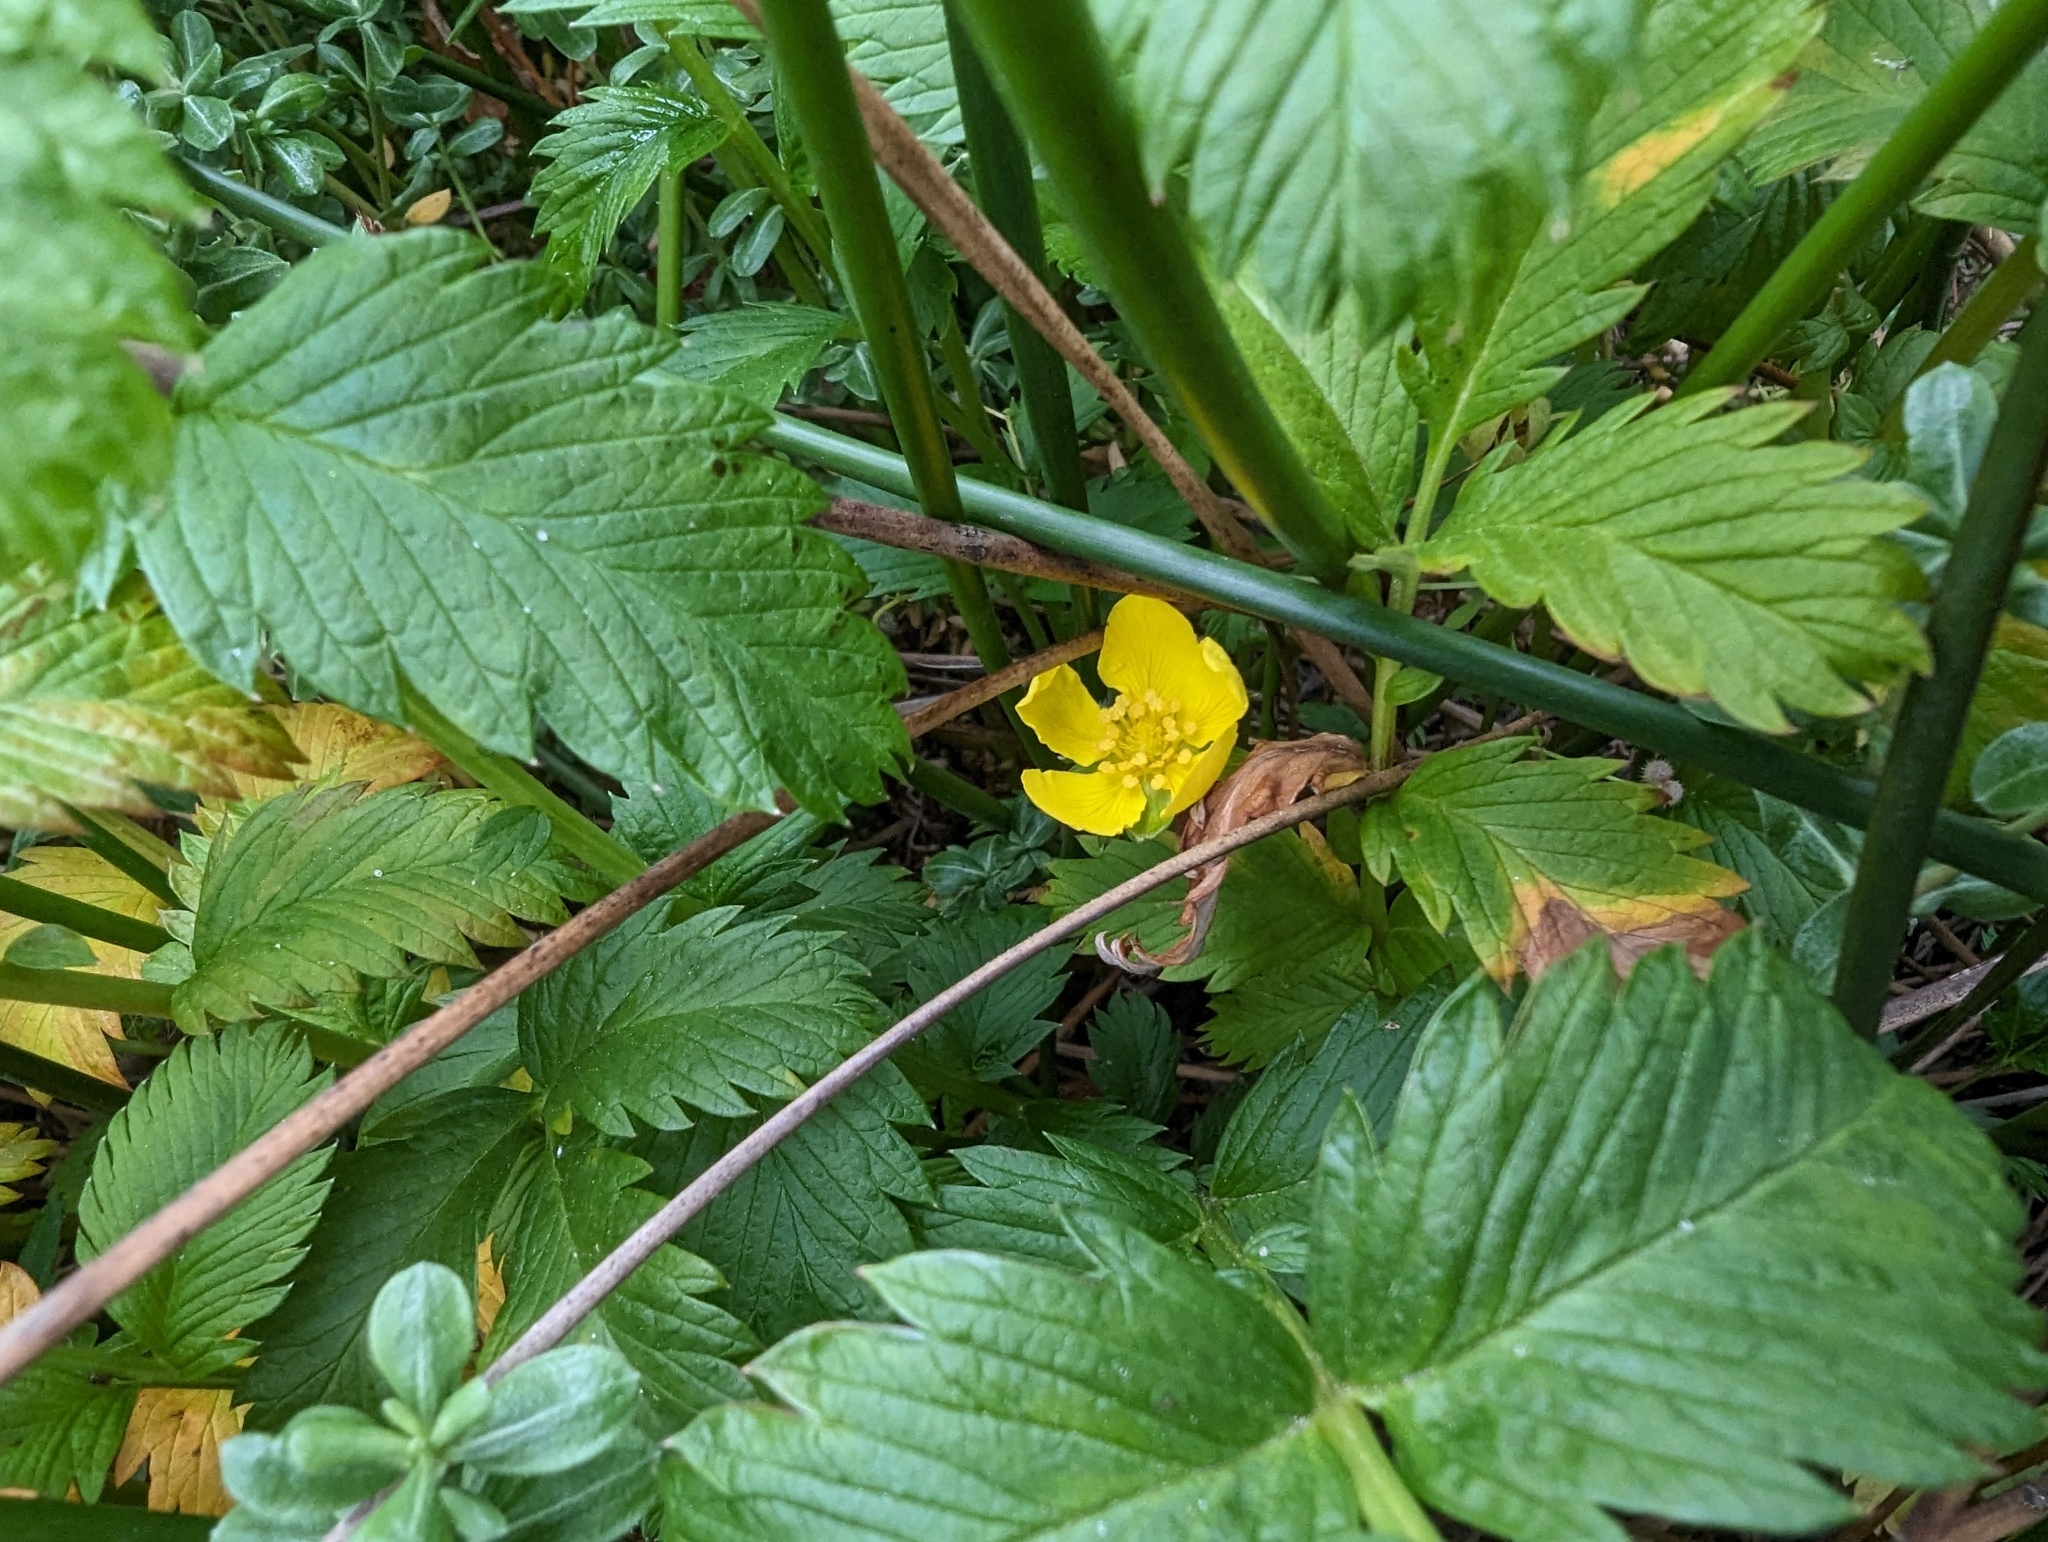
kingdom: Plantae
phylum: Tracheophyta
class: Magnoliopsida
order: Rosales
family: Rosaceae
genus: Argentina
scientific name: Argentina anserina
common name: Common silverweed
